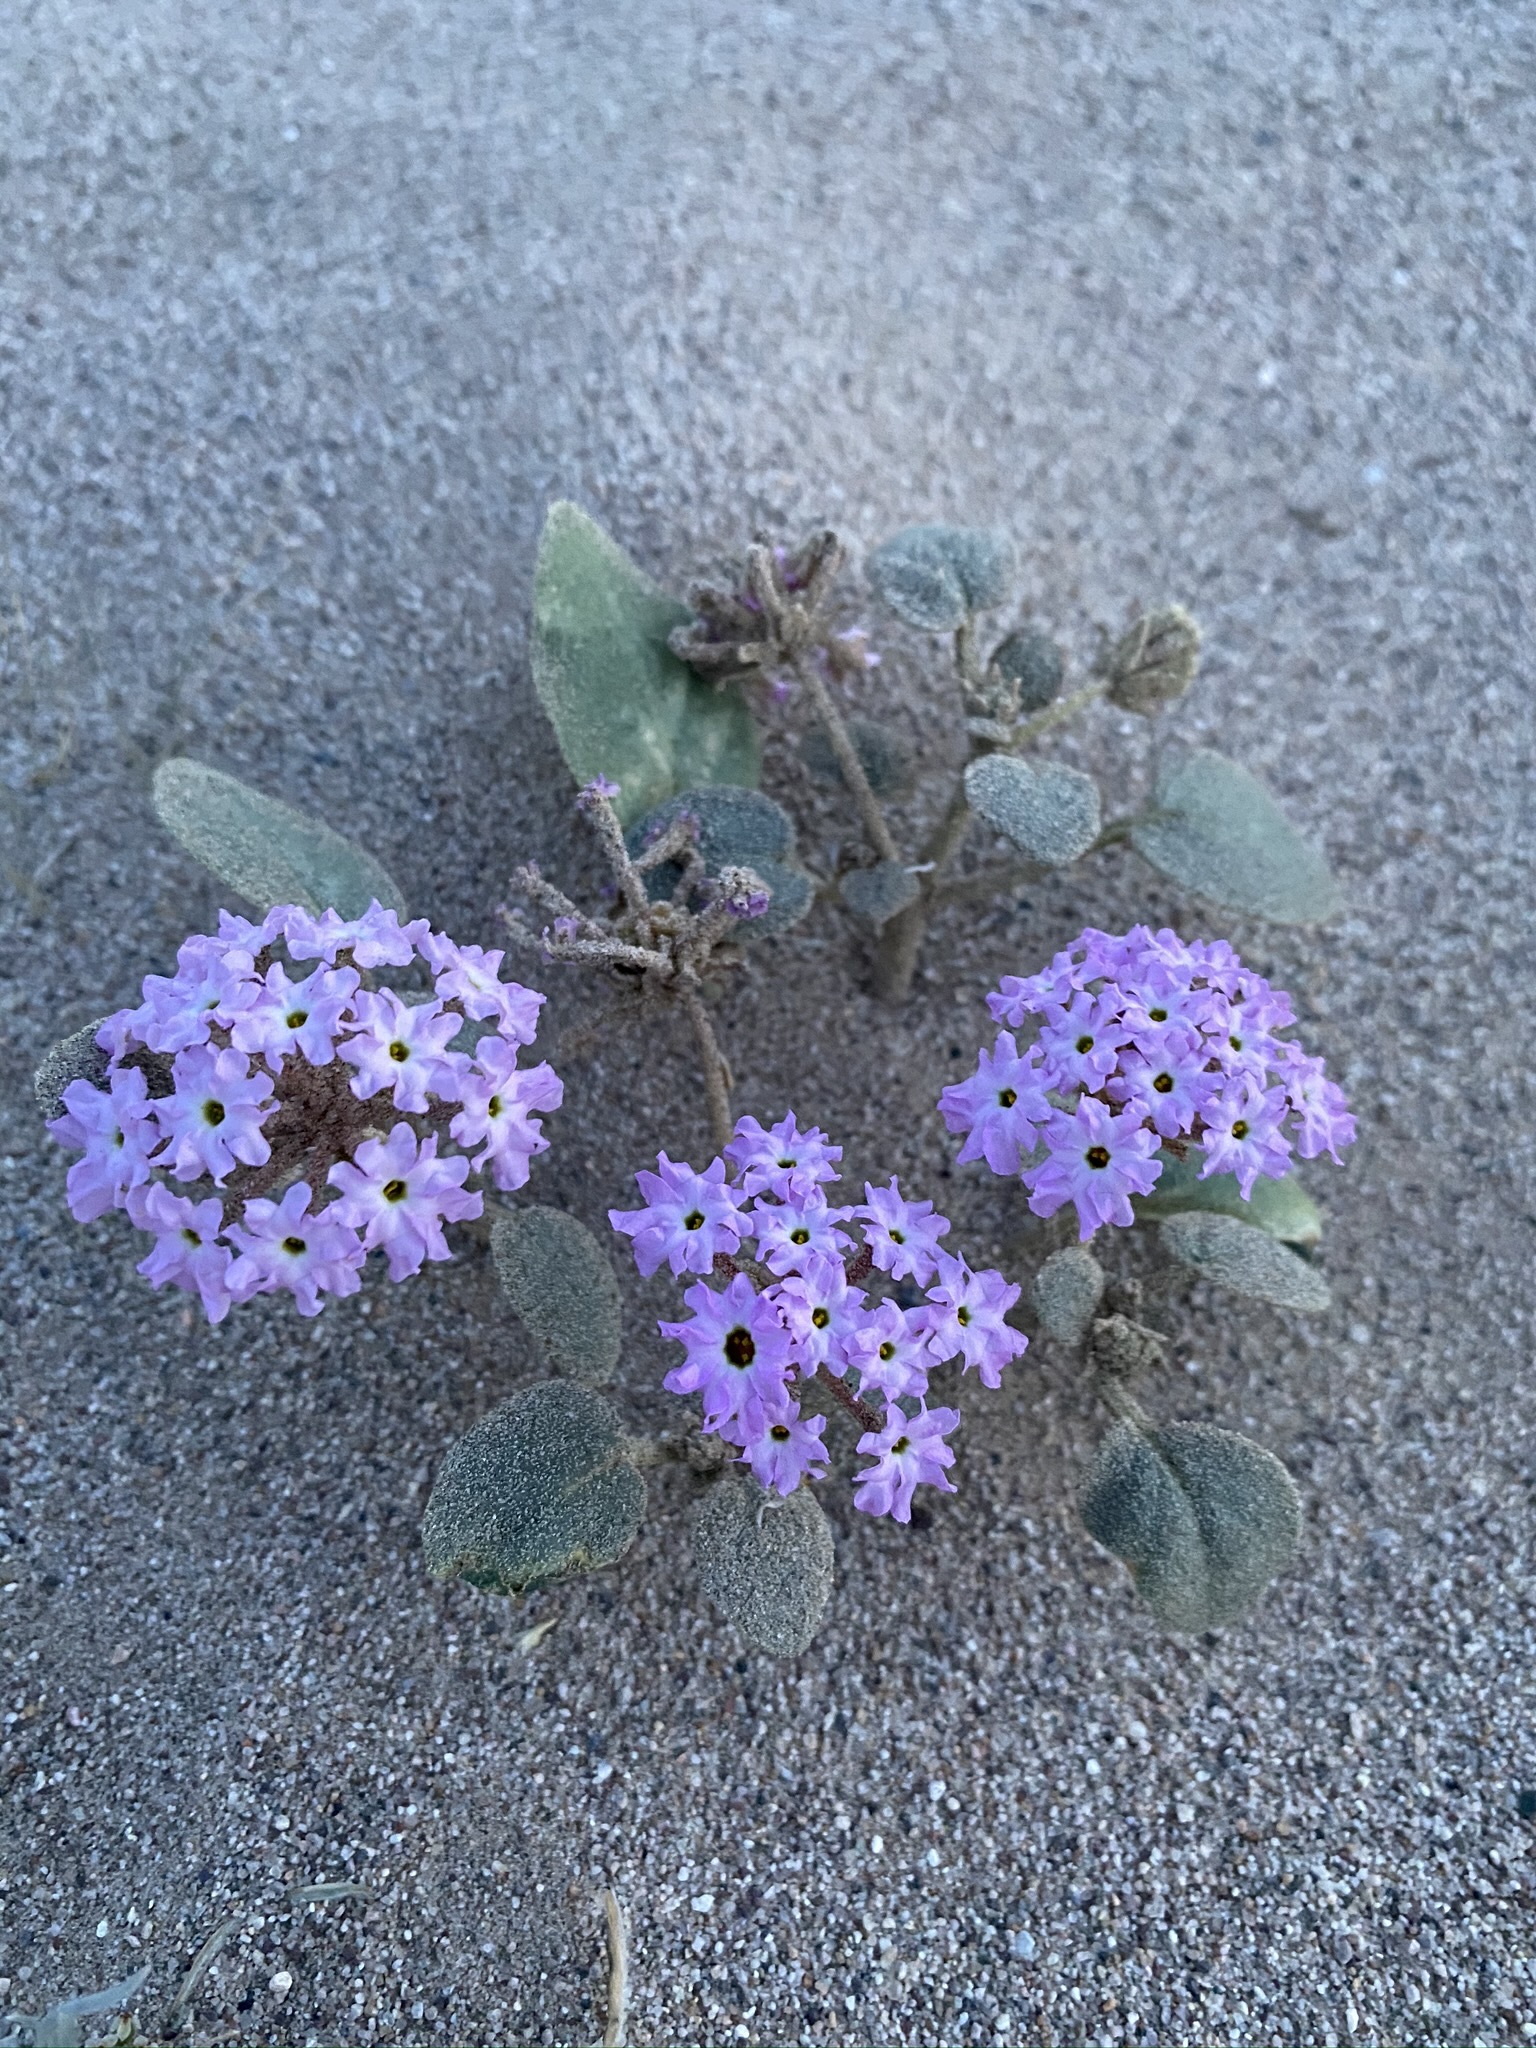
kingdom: Plantae
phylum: Tracheophyta
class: Magnoliopsida
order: Caryophyllales
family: Nyctaginaceae
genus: Abronia
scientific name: Abronia villosa
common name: Desert sand-verbena
